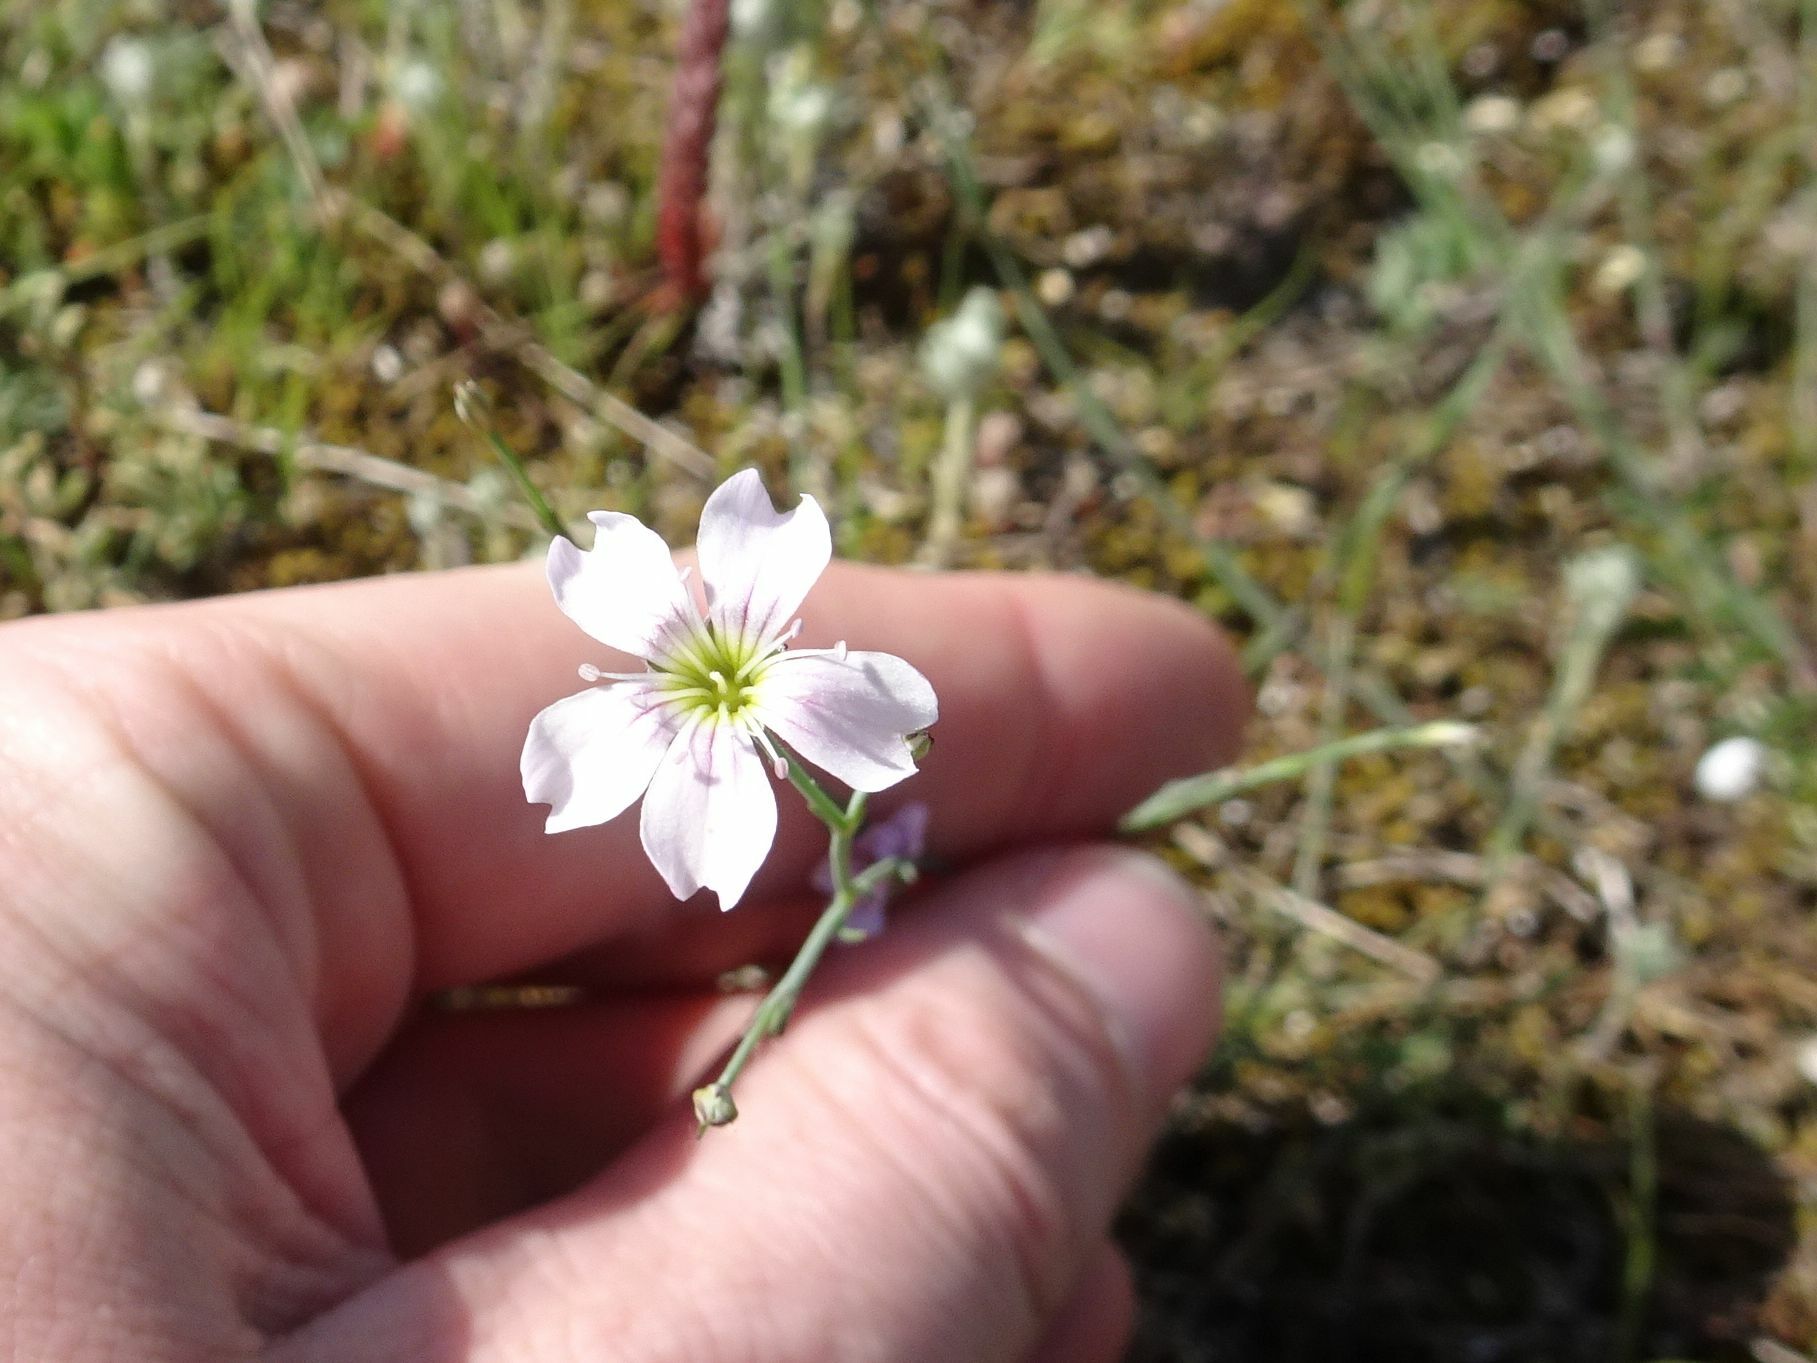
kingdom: Plantae
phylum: Tracheophyta
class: Magnoliopsida
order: Caryophyllales
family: Caryophyllaceae
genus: Petrorhagia
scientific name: Petrorhagia saxifraga
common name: Tunicflower
